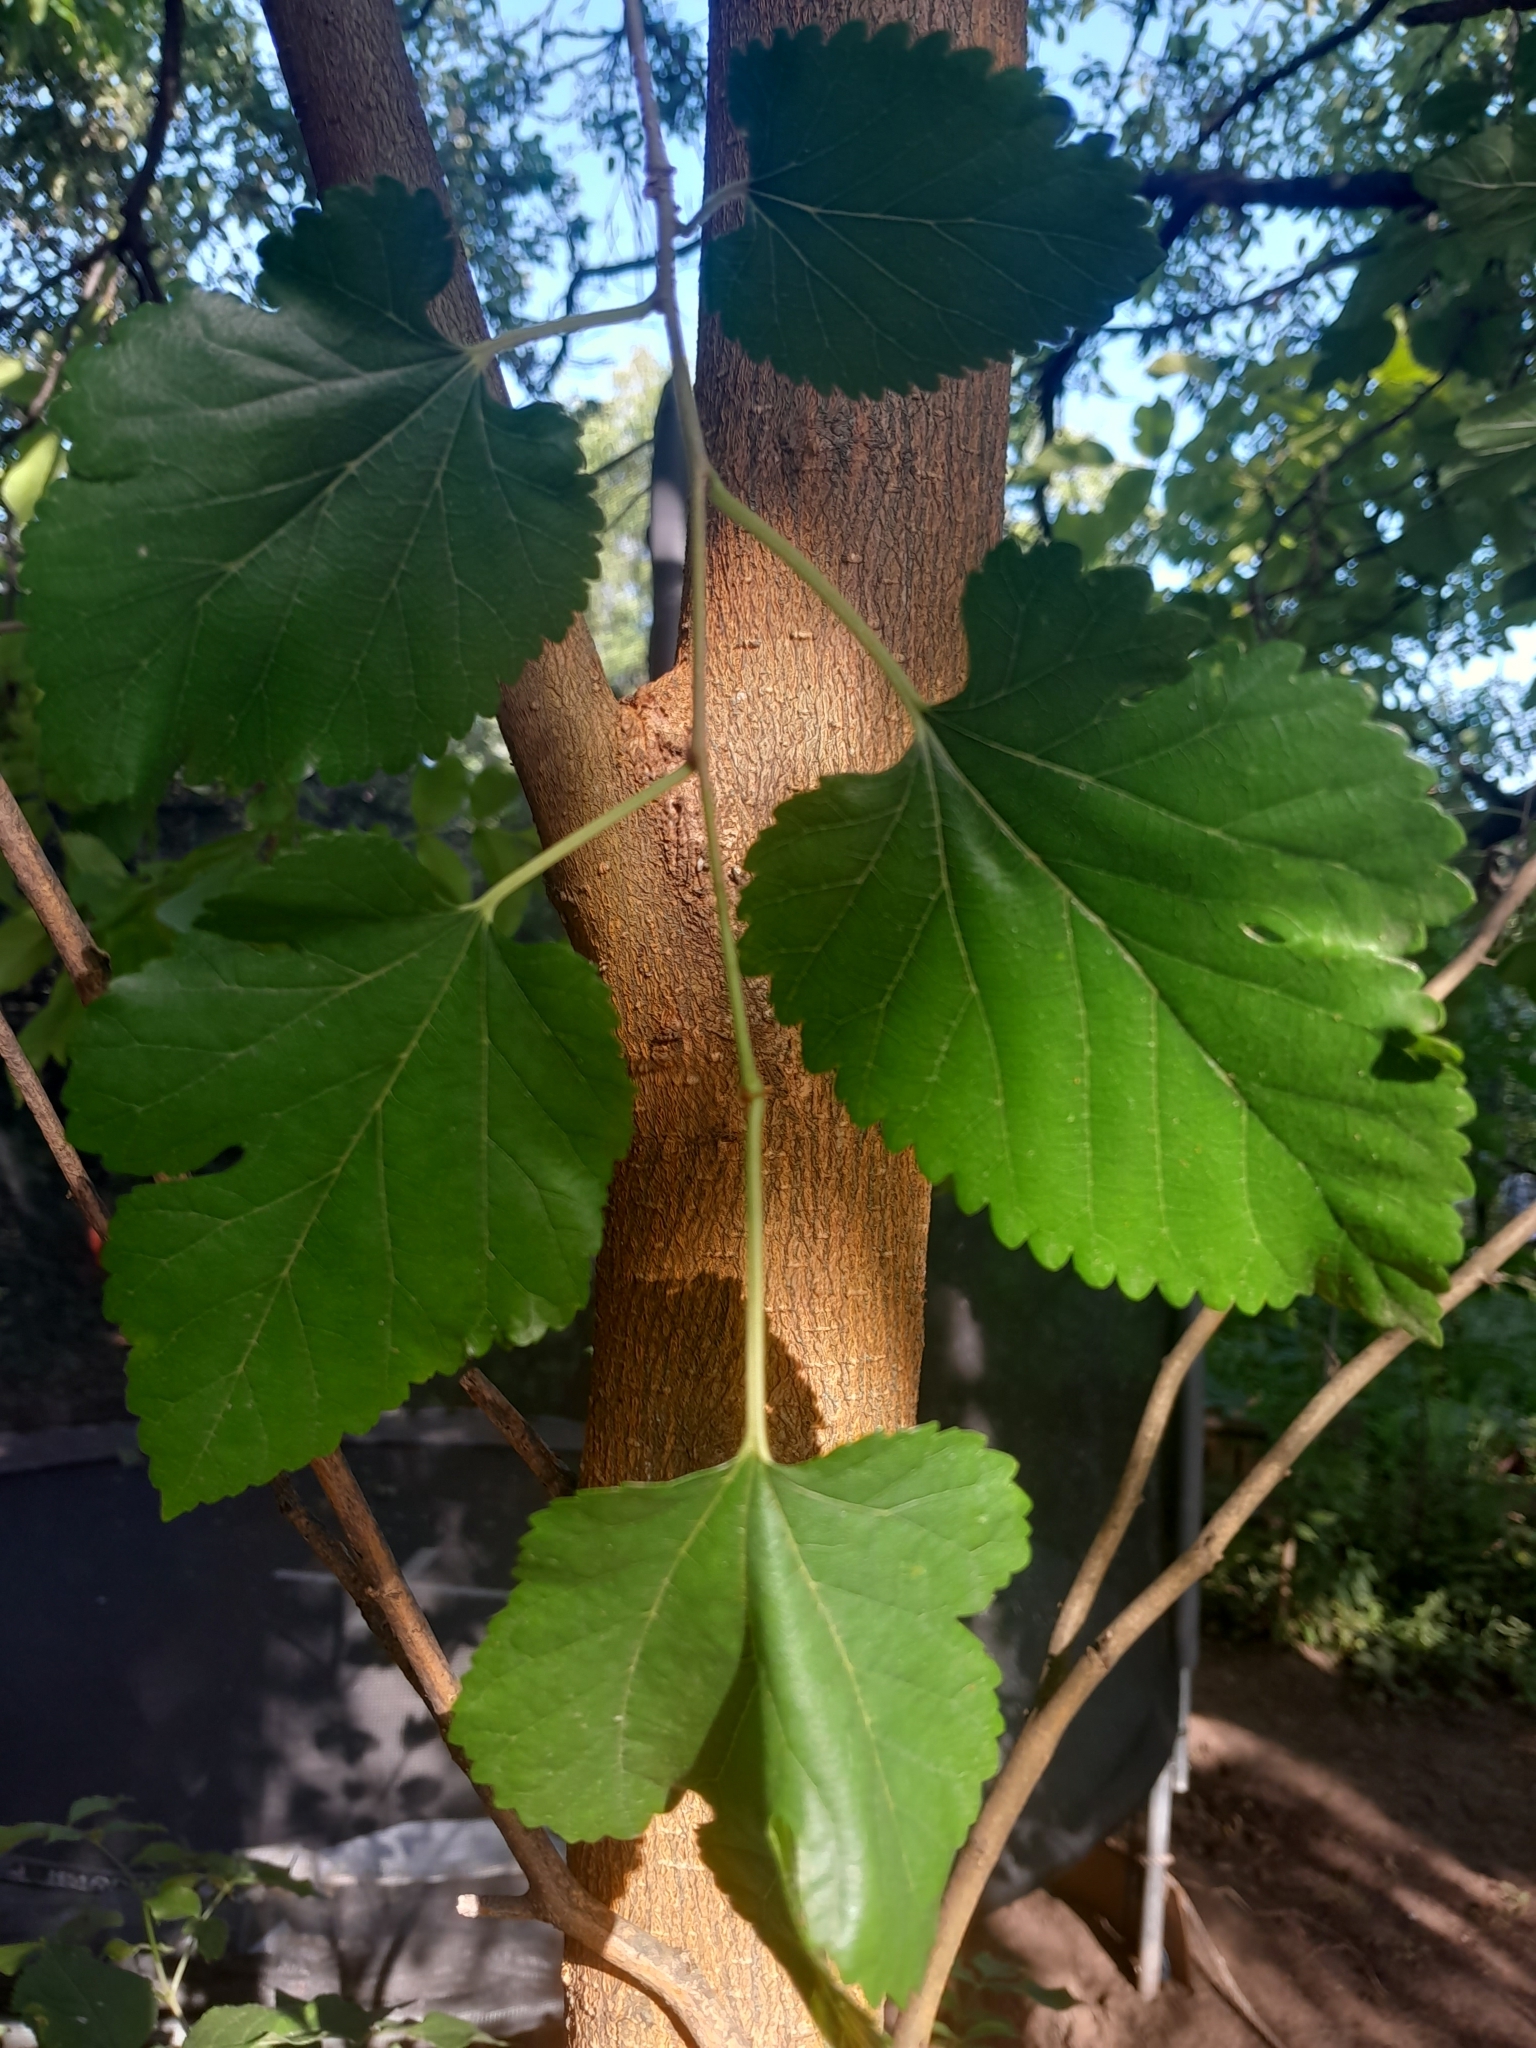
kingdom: Plantae
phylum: Tracheophyta
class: Magnoliopsida
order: Rosales
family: Moraceae
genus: Morus
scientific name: Morus alba
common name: White mulberry
